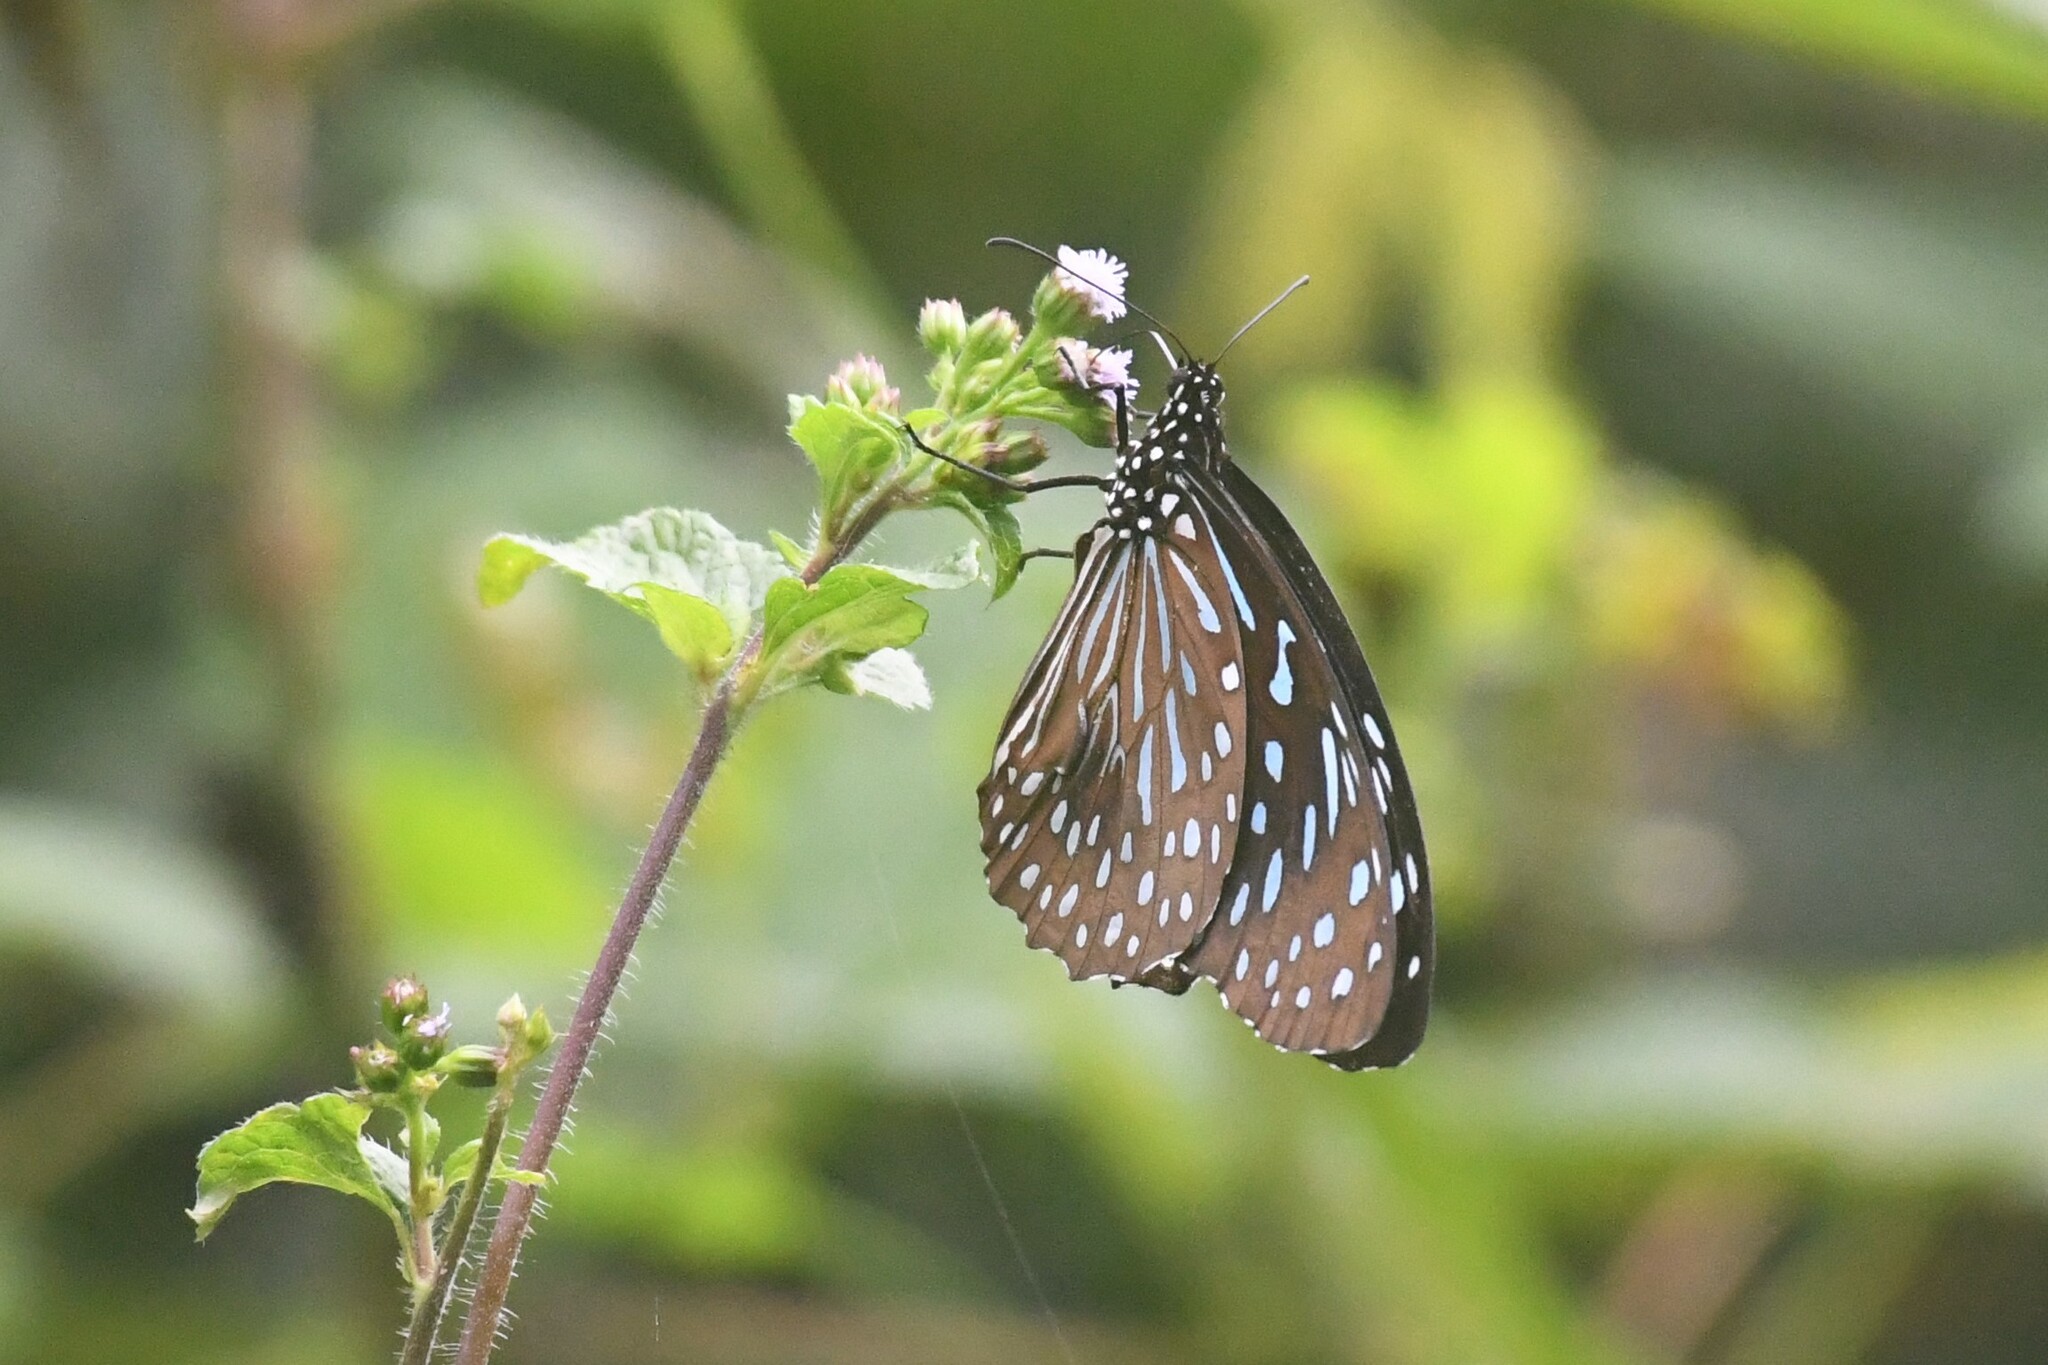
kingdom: Animalia
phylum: Arthropoda
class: Insecta
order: Lepidoptera
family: Nymphalidae
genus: Tirumala
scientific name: Tirumala septentrionis
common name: Dark blue tiger butterfly
